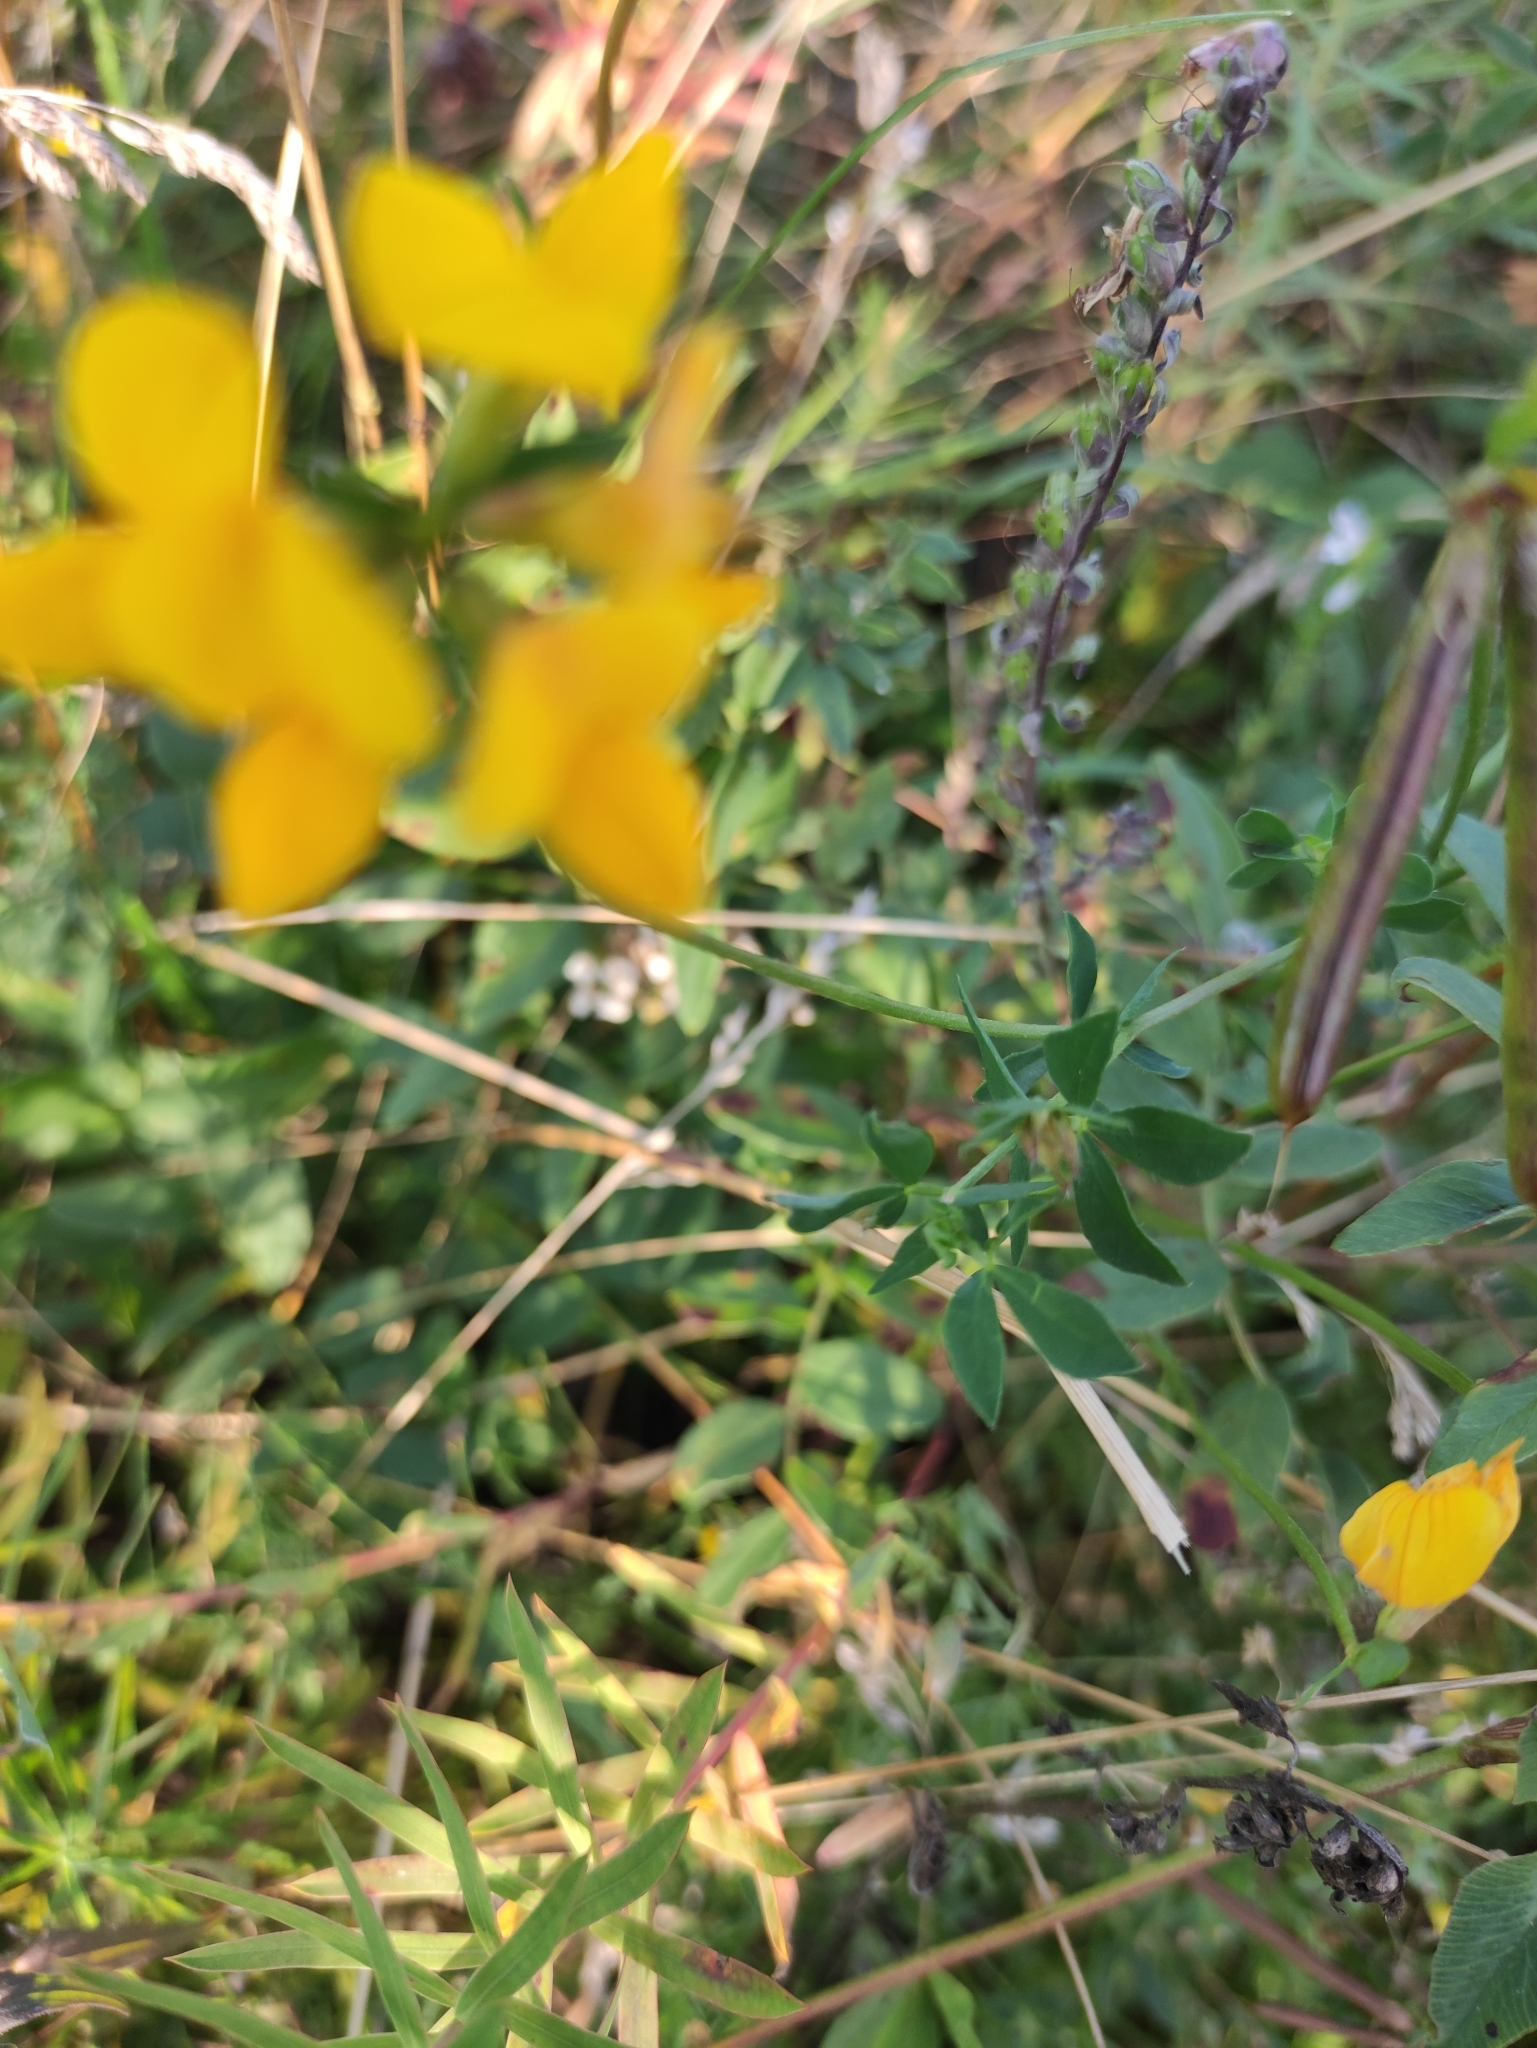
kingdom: Plantae
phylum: Tracheophyta
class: Magnoliopsida
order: Fabales
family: Fabaceae
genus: Lotus
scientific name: Lotus corniculatus
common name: Common bird's-foot-trefoil
